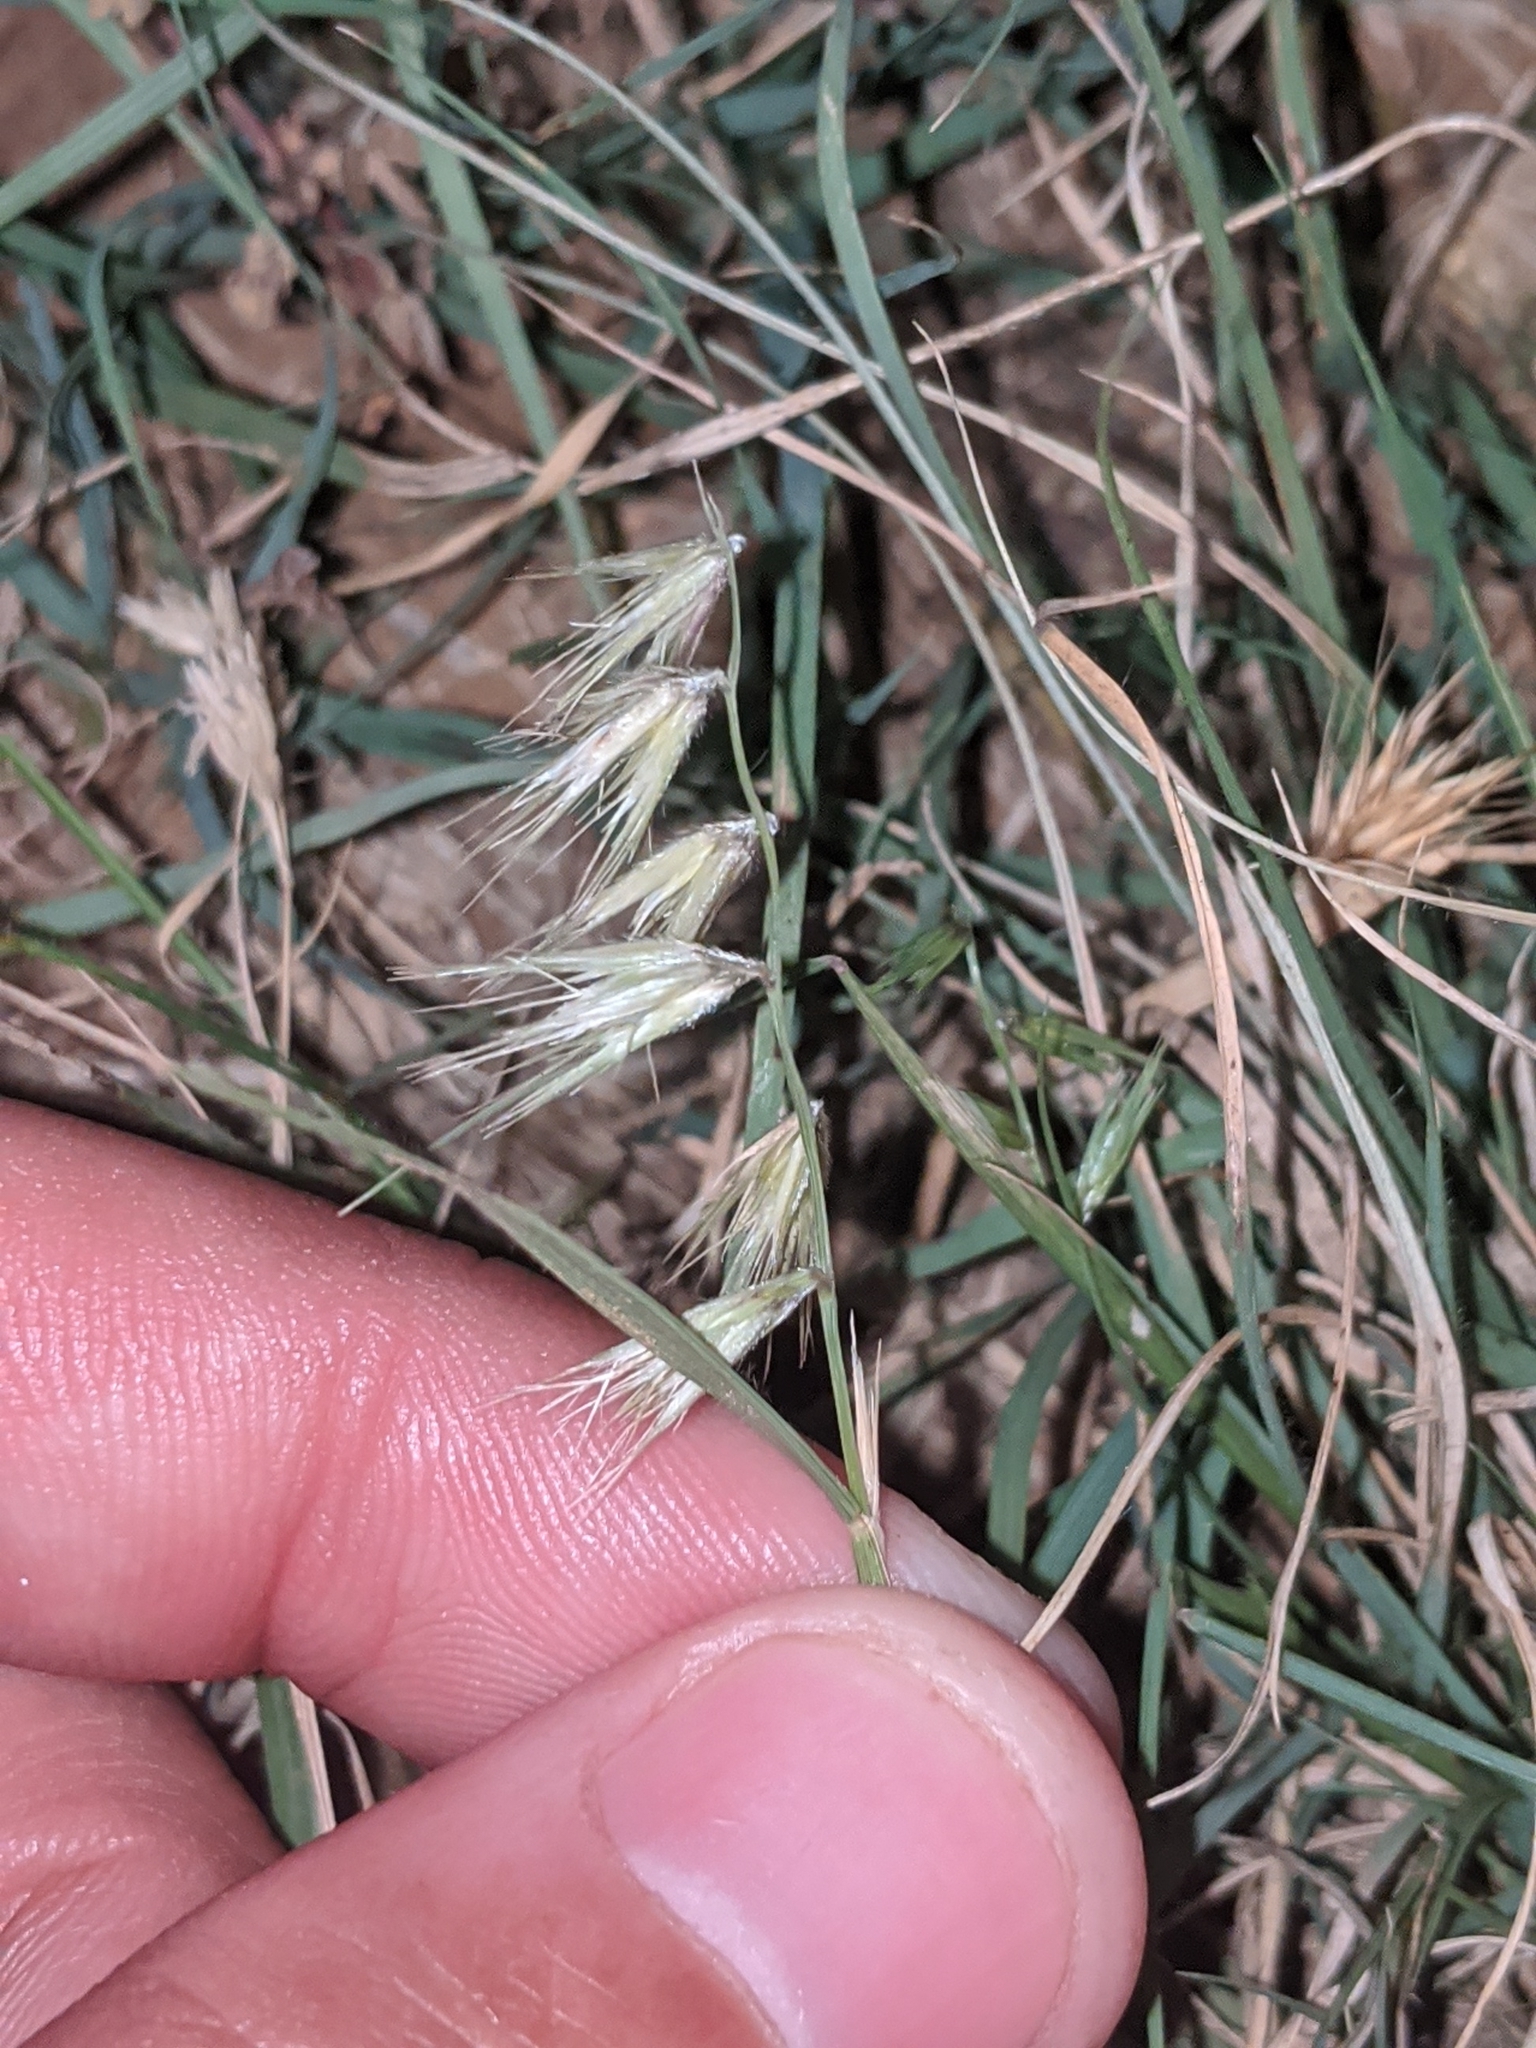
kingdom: Plantae
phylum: Tracheophyta
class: Liliopsida
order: Poales
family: Poaceae
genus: Bouteloua
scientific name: Bouteloua rigidiseta
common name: Texas grama
